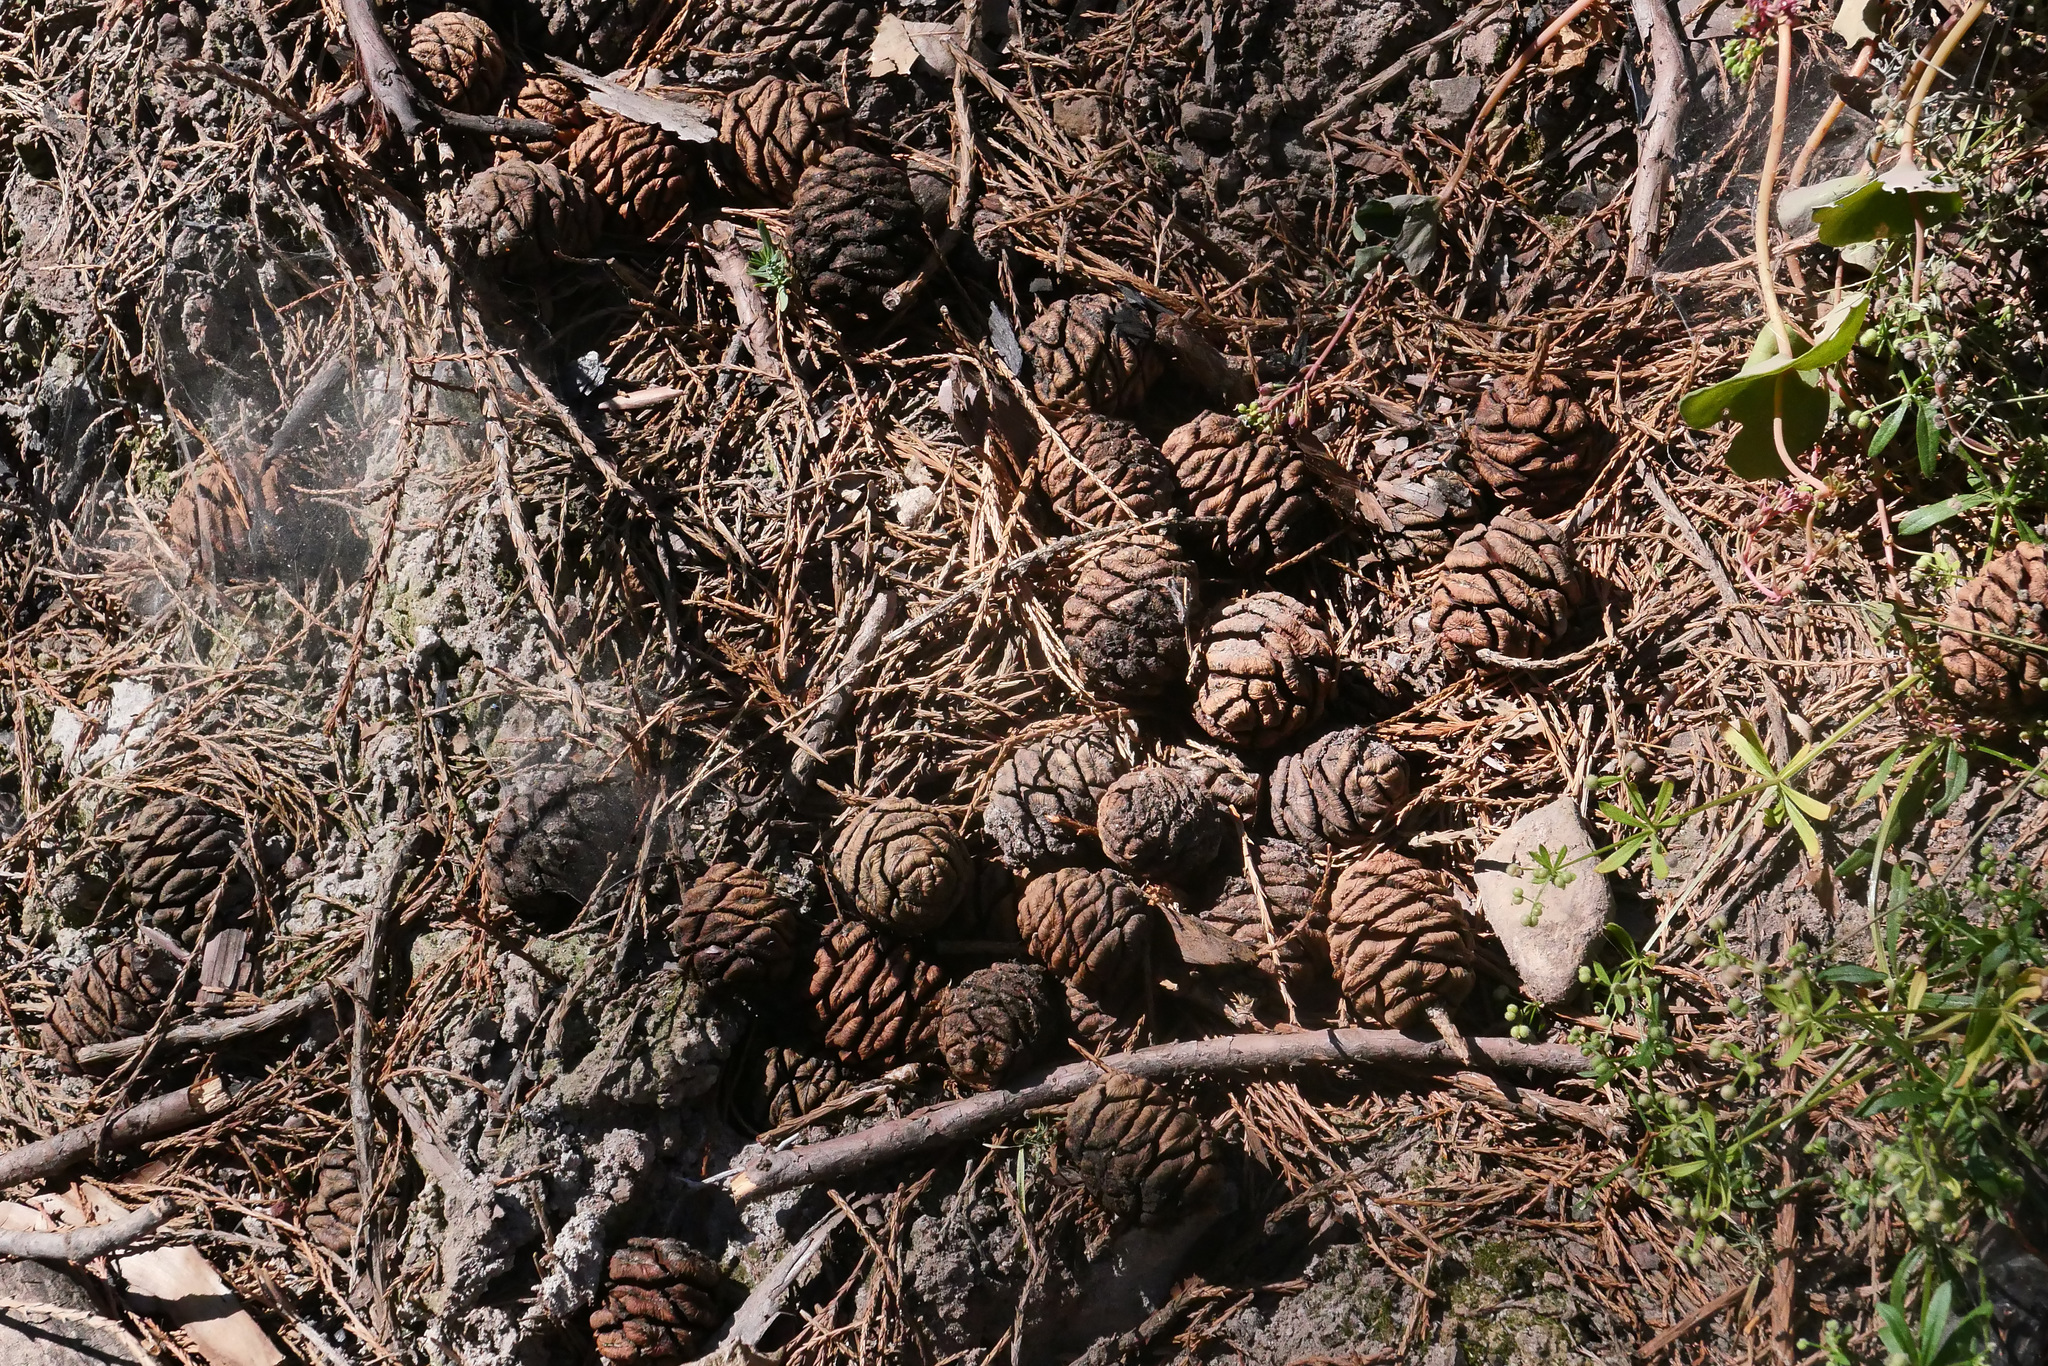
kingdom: Plantae
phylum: Tracheophyta
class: Pinopsida
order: Pinales
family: Cupressaceae
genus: Sequoiadendron
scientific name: Sequoiadendron giganteum
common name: Wellingtonia
